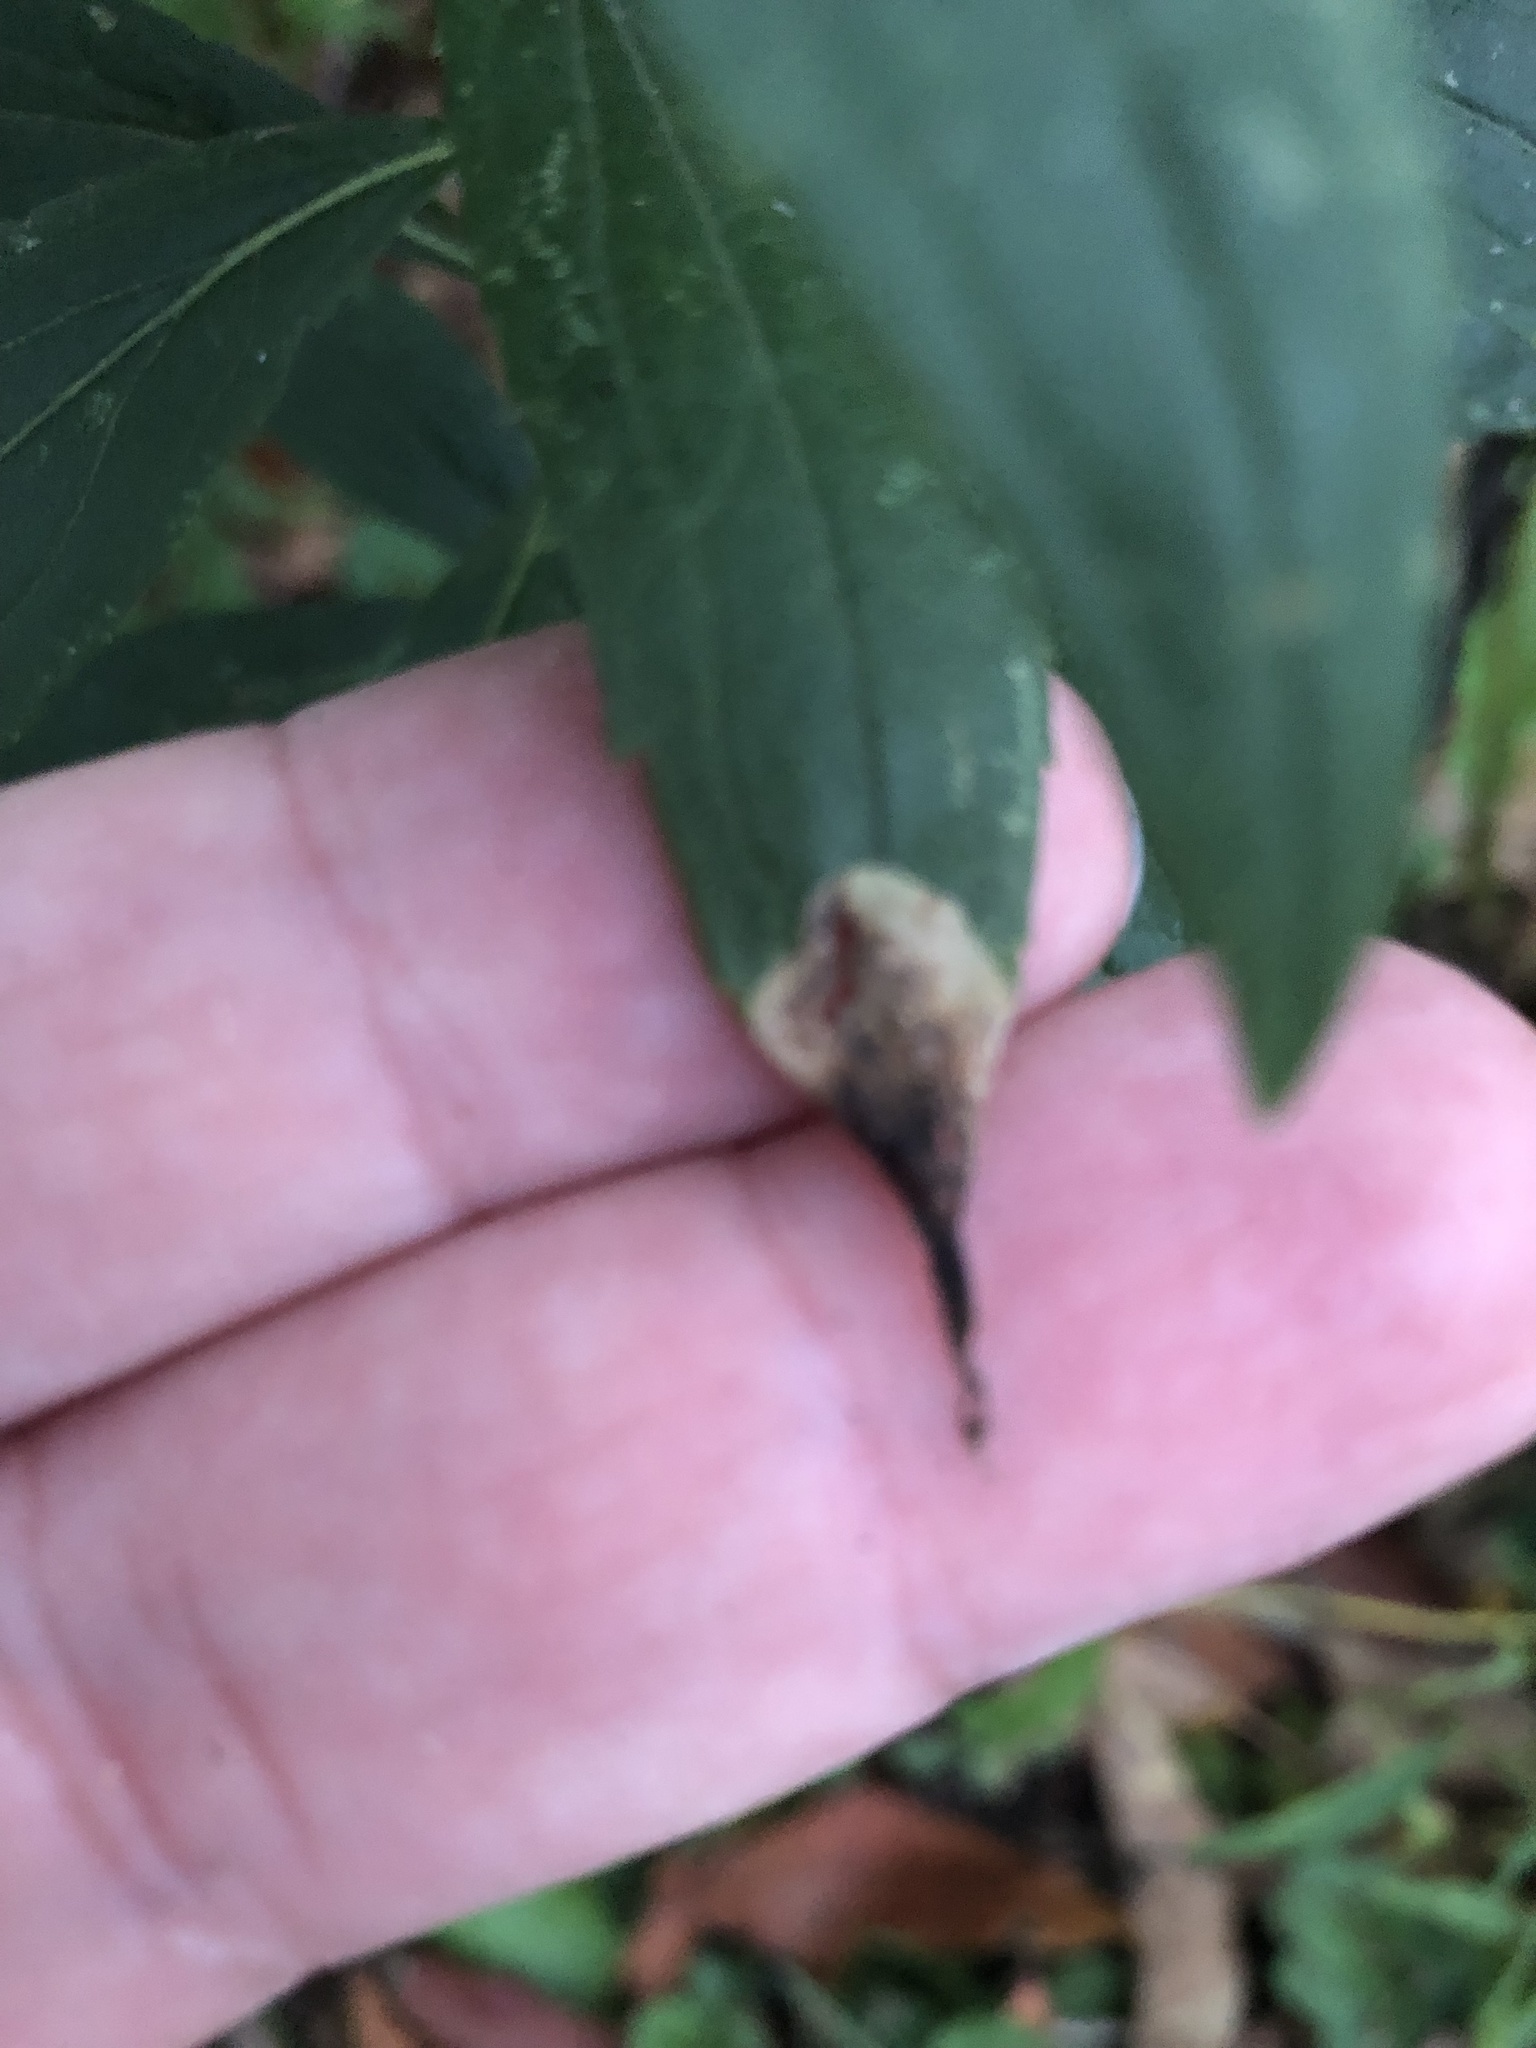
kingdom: Animalia
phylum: Arthropoda
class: Insecta
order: Diptera
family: Cecidomyiidae
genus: Asteromyia
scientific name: Asteromyia carbonifera
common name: Carbonifera goldenrod gall midge
